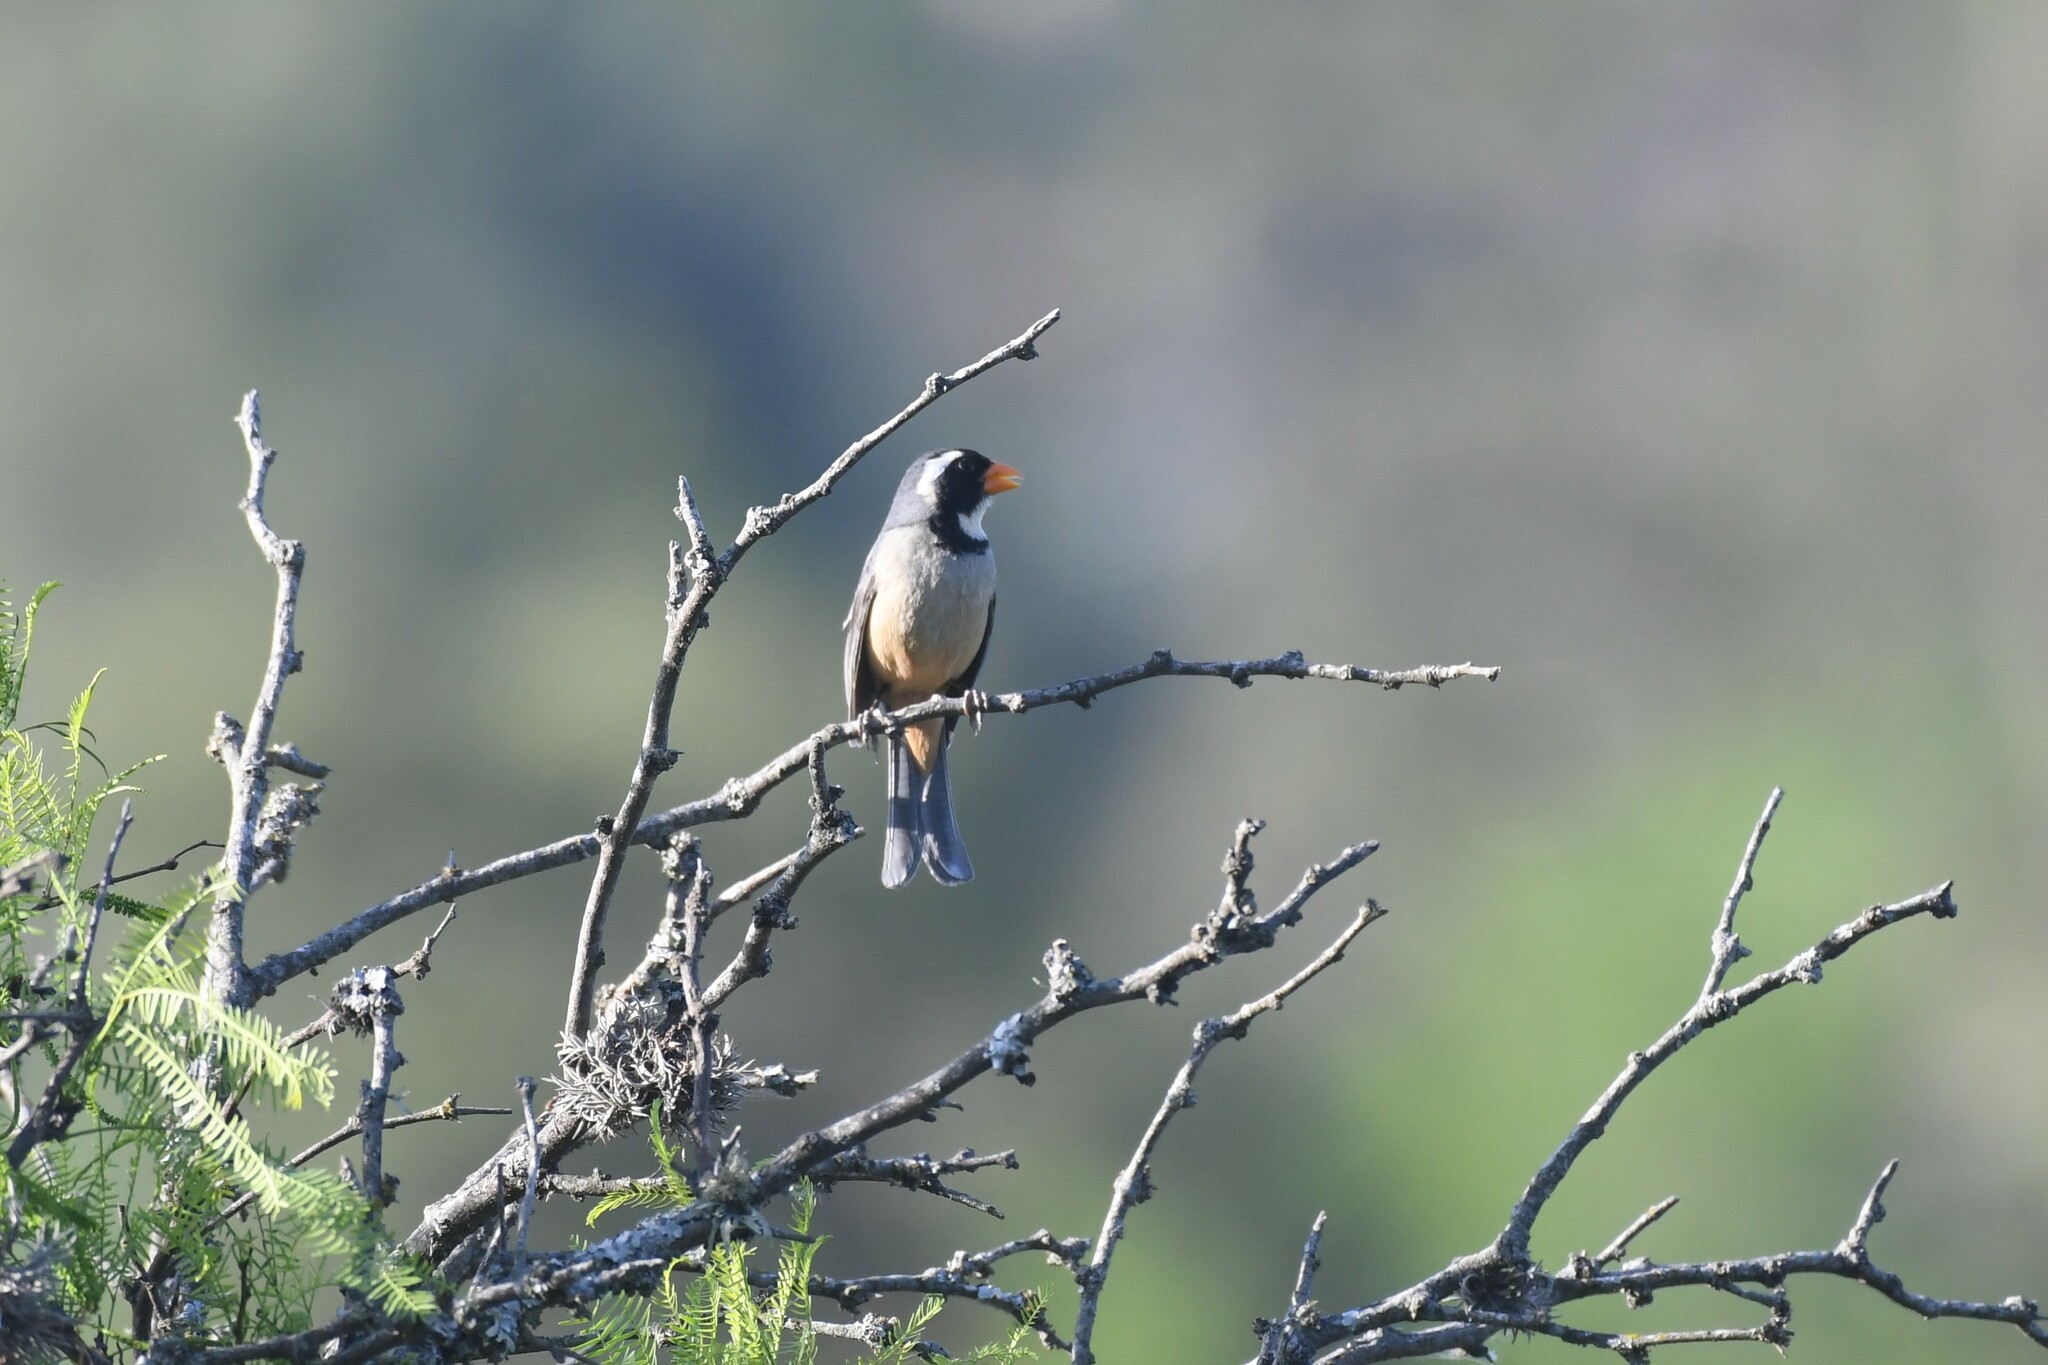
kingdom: Animalia
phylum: Chordata
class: Aves
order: Passeriformes
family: Thraupidae
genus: Saltator
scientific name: Saltator aurantiirostris
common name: Golden-billed saltator
